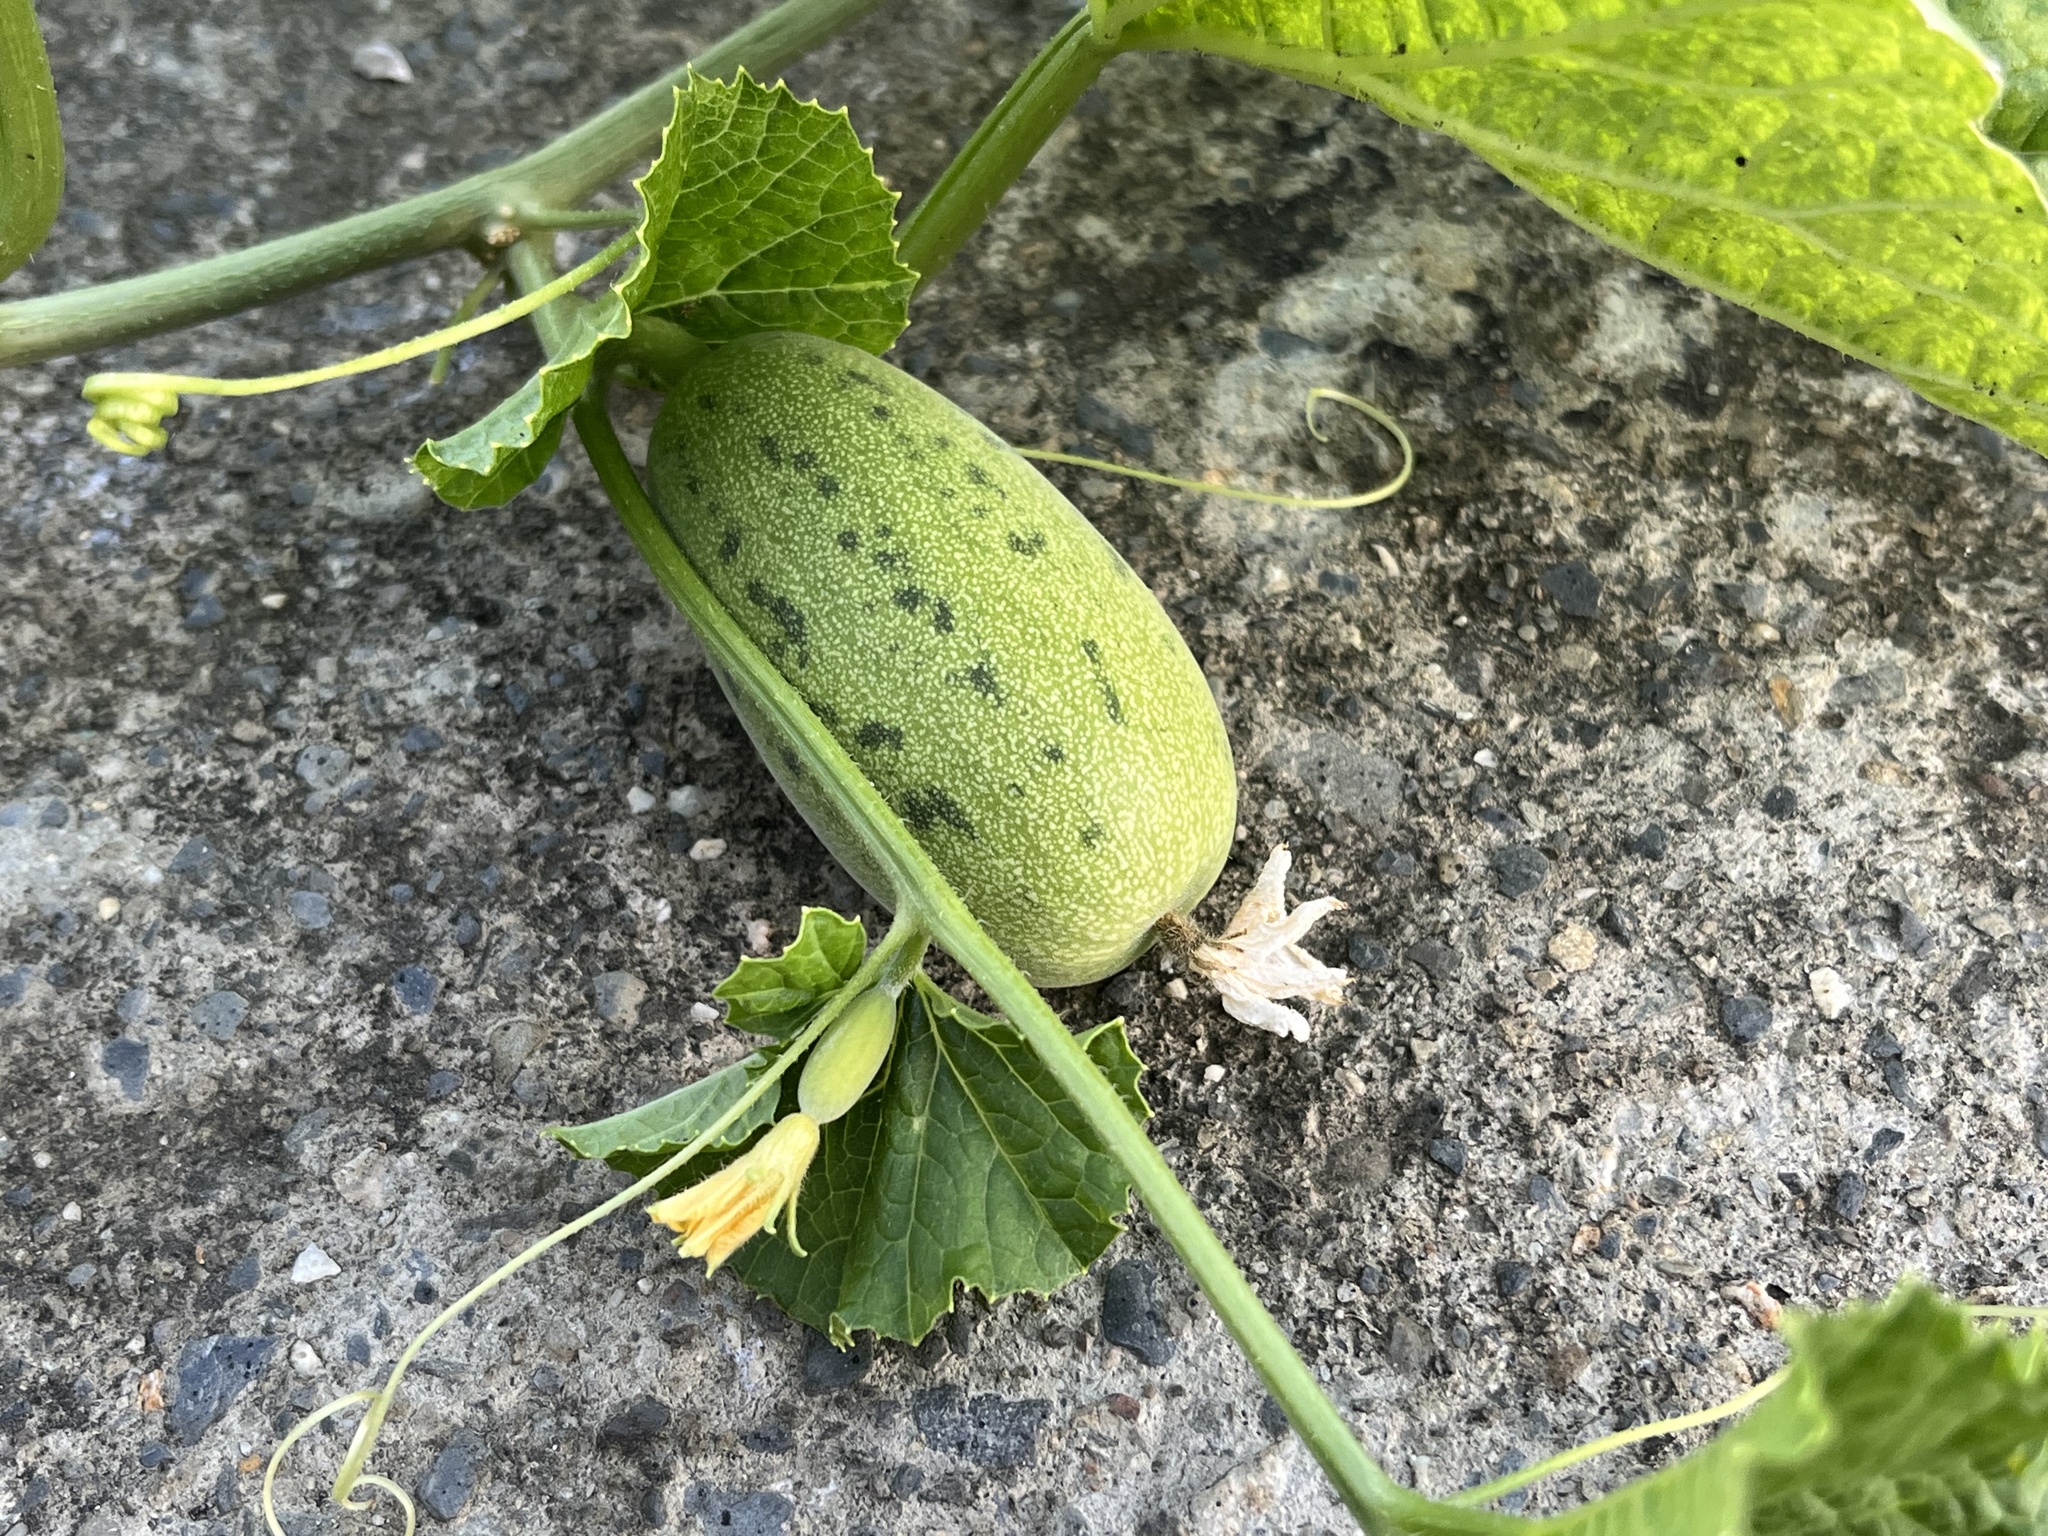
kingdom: Plantae
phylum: Tracheophyta
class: Magnoliopsida
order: Cucurbitales
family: Cucurbitaceae
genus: Cucumis
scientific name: Cucumis melo
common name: Melon
